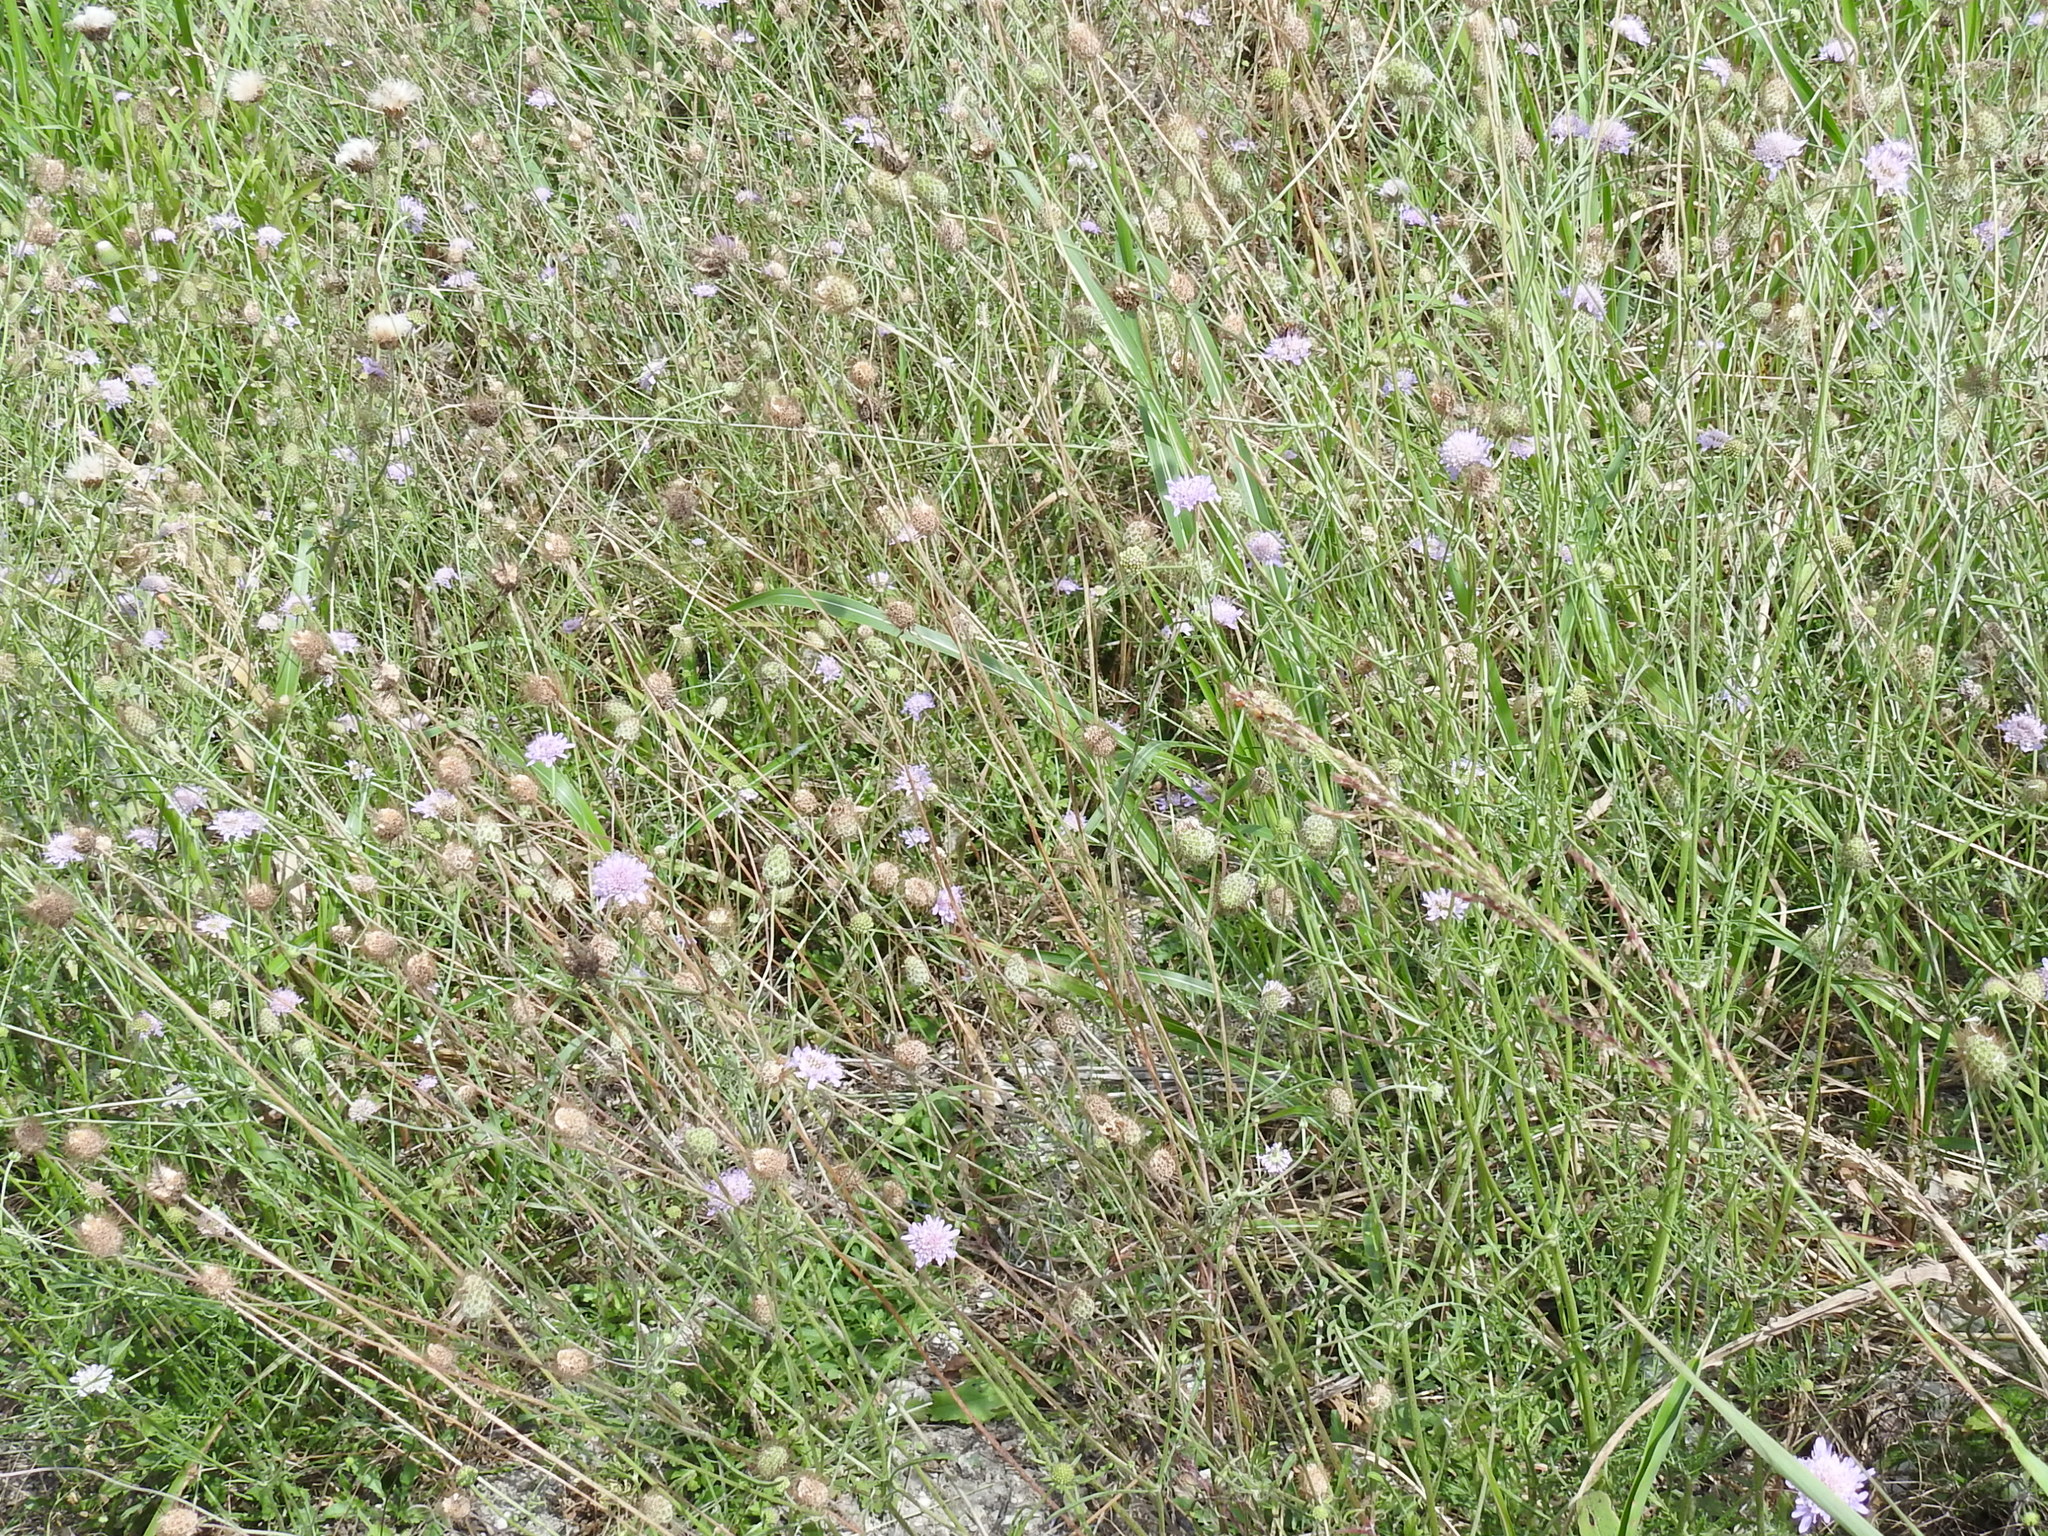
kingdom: Plantae
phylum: Tracheophyta
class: Magnoliopsida
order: Dipsacales
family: Caprifoliaceae
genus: Sixalix
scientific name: Sixalix atropurpurea
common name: Sweet scabious
